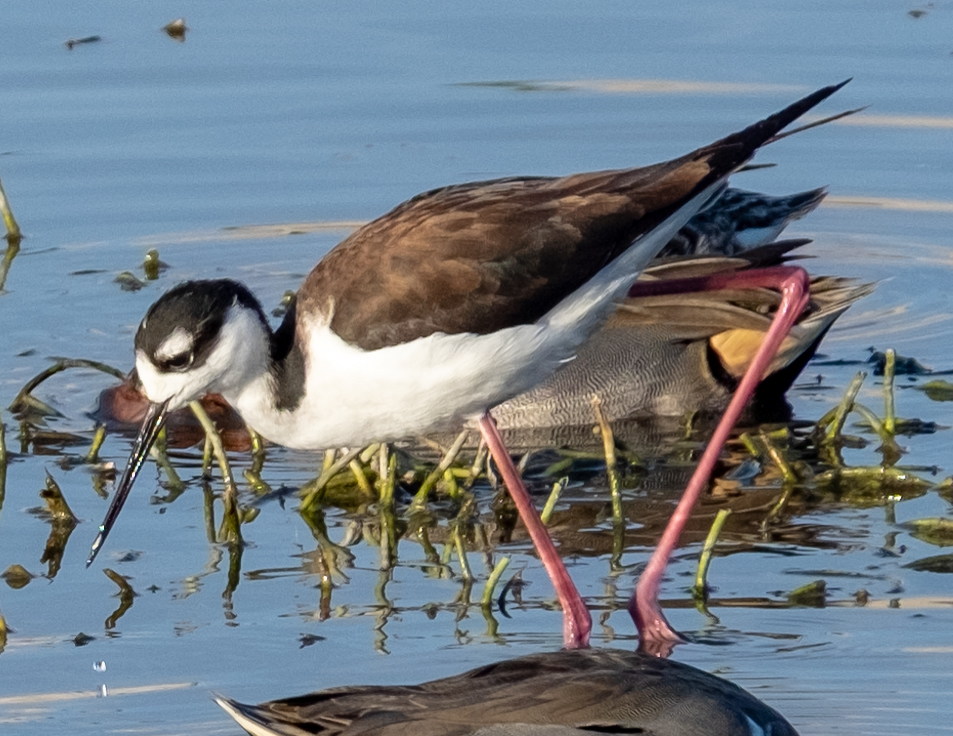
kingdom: Animalia
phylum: Chordata
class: Aves
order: Charadriiformes
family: Recurvirostridae
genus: Himantopus
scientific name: Himantopus mexicanus
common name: Black-necked stilt
